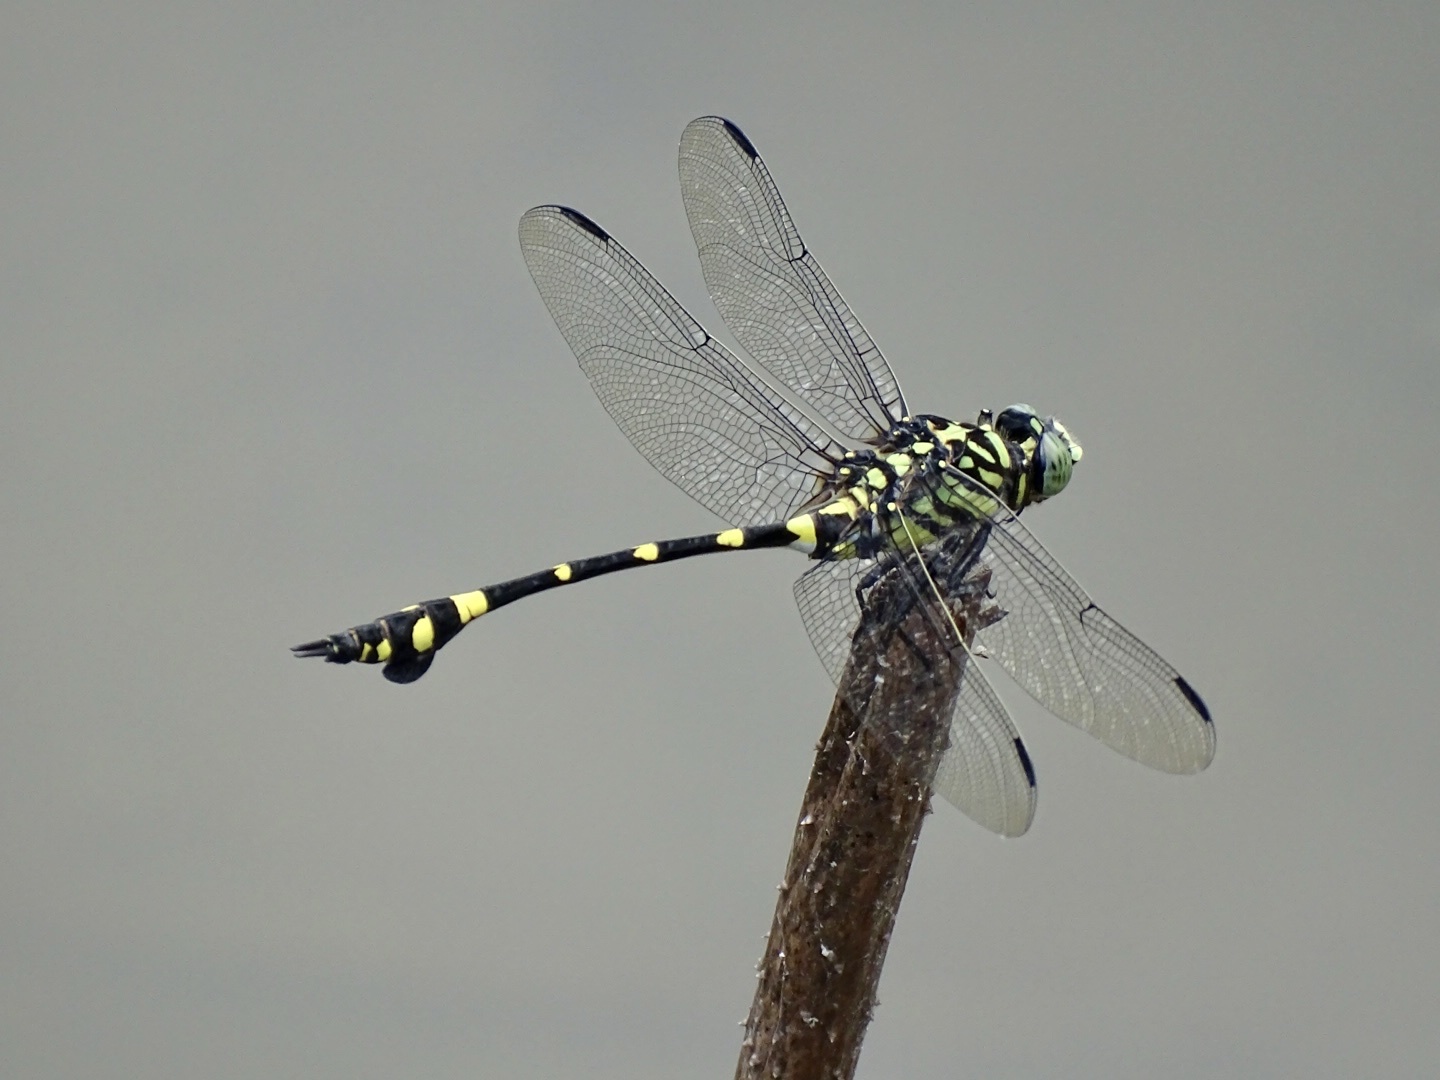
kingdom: Animalia
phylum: Arthropoda
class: Insecta
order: Odonata
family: Gomphidae
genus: Ictinogomphus
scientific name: Ictinogomphus pertinax
